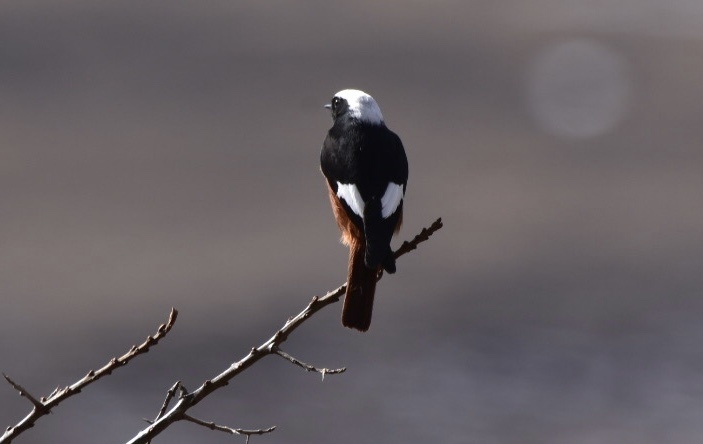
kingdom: Animalia
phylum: Chordata
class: Aves
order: Passeriformes
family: Muscicapidae
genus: Phoenicurus
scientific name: Phoenicurus erythrogastrus
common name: Güldenstädt's redstart
